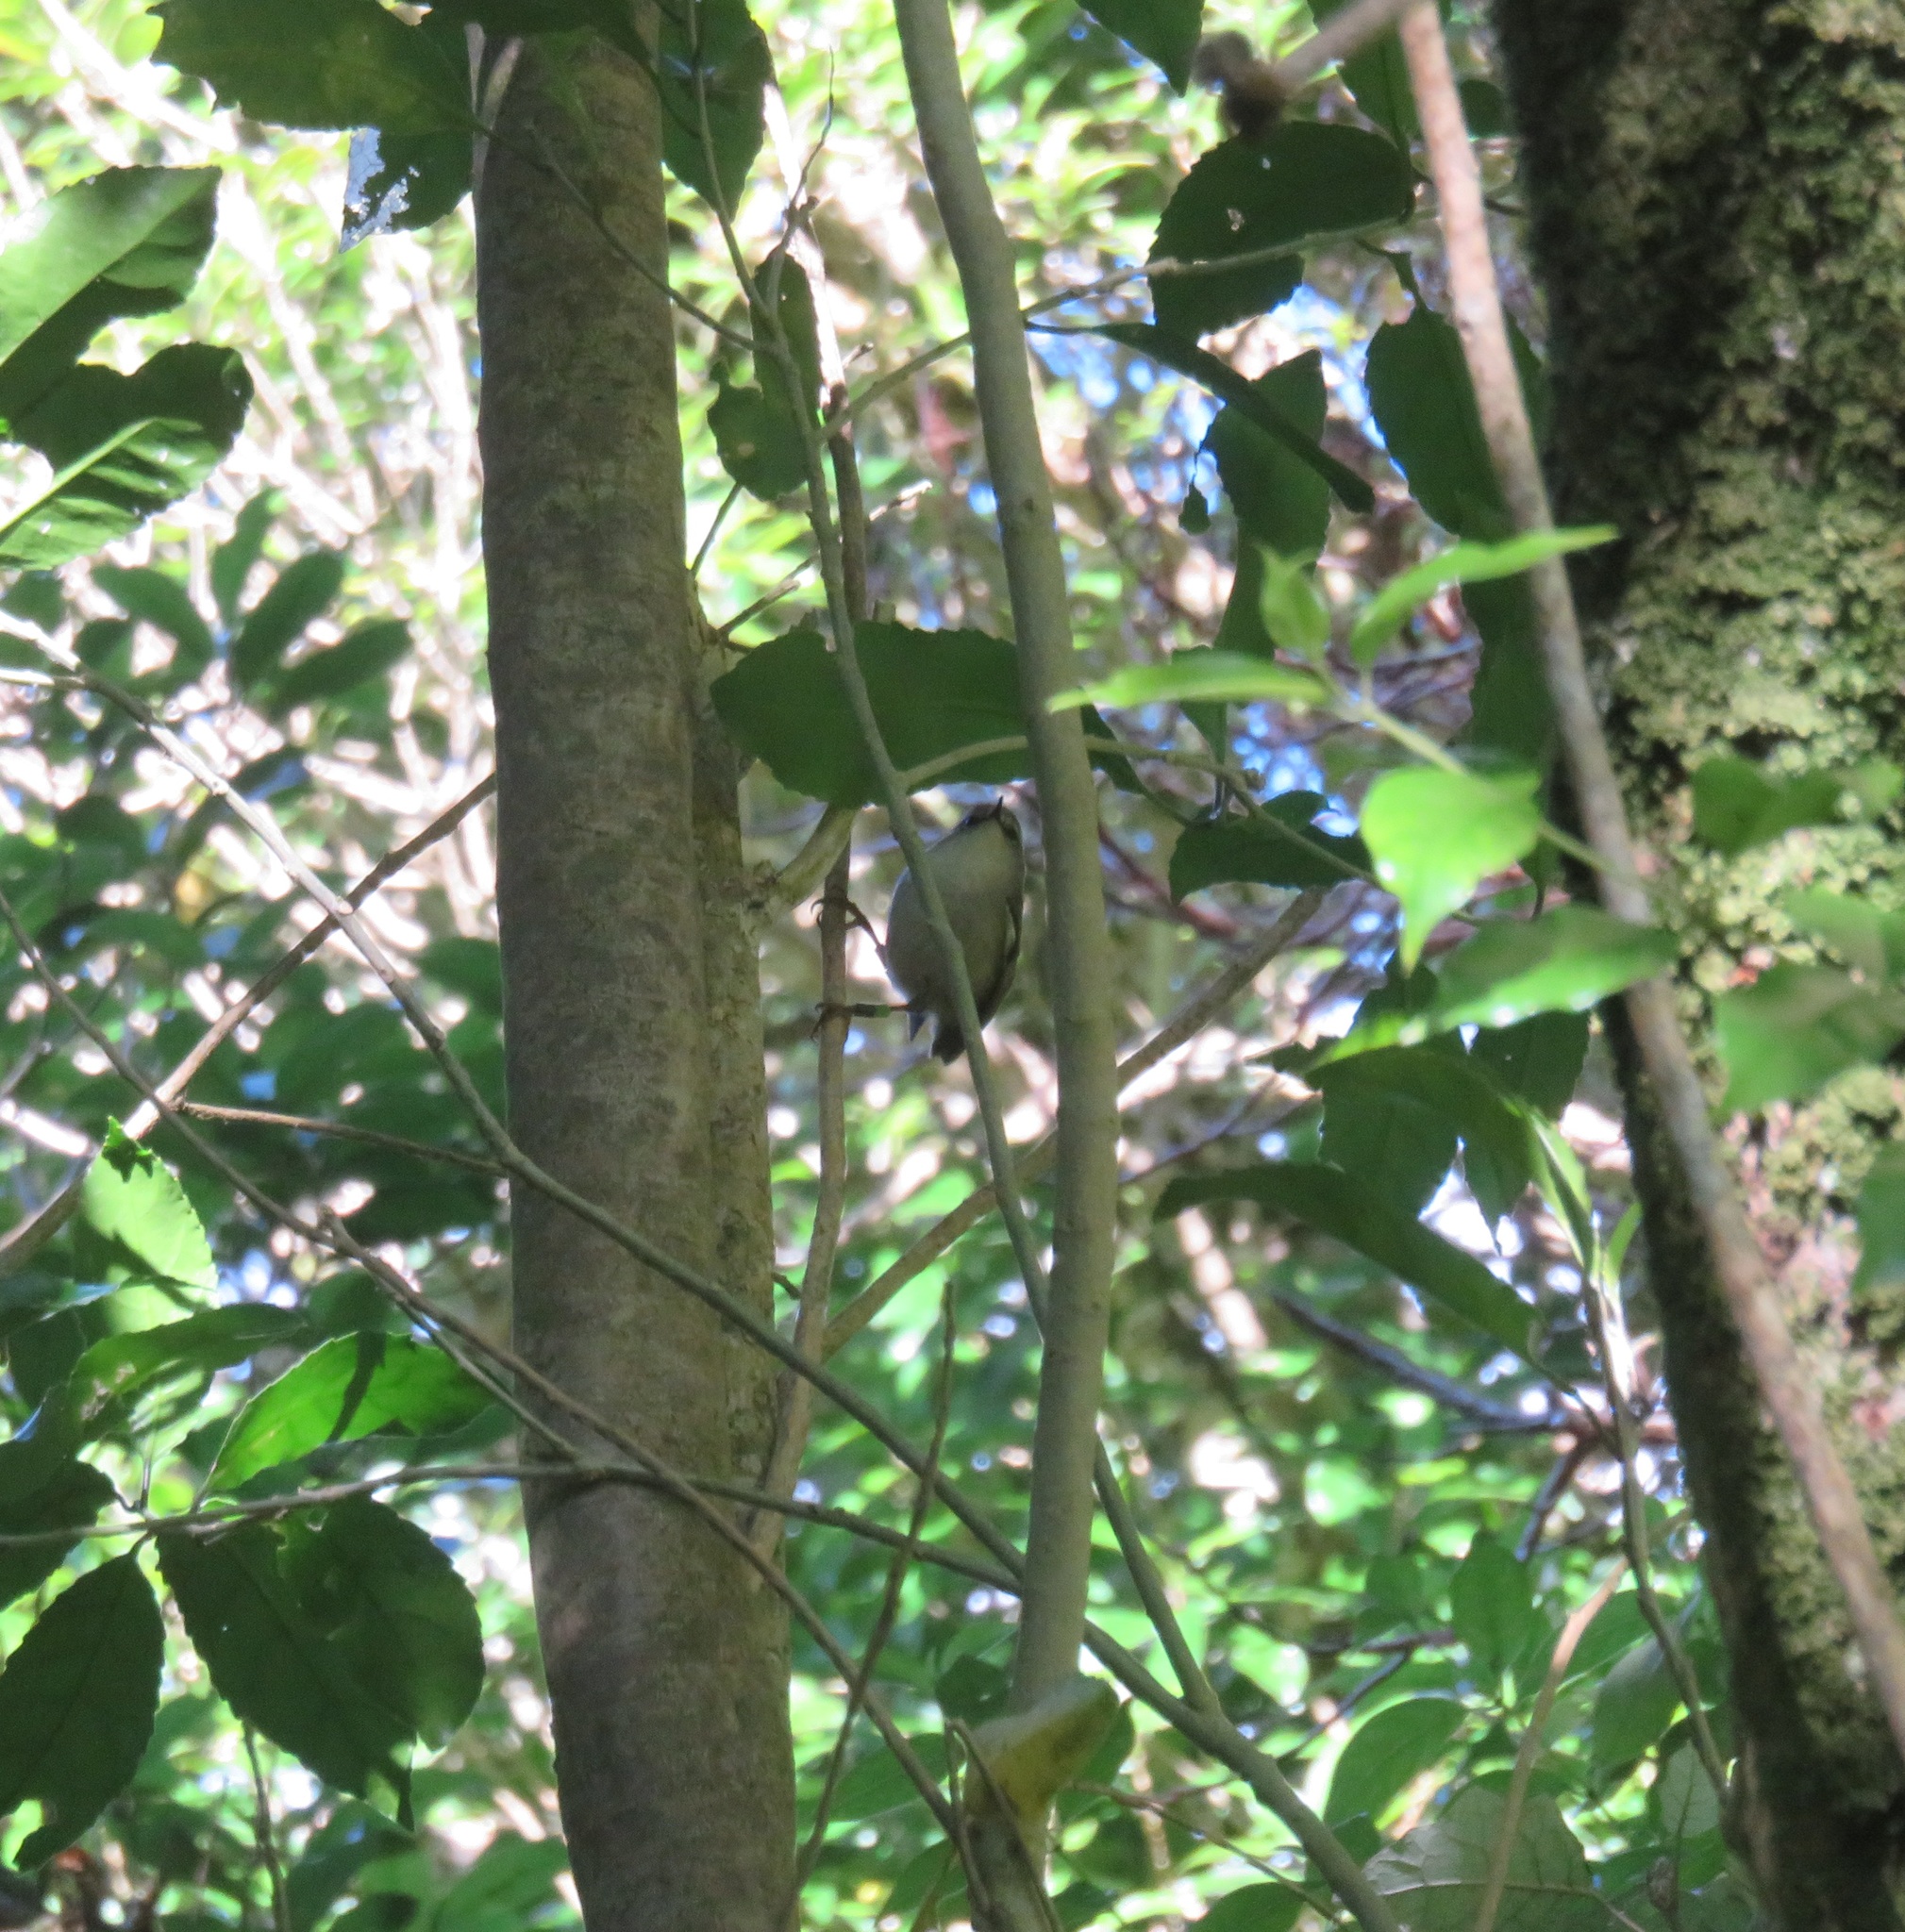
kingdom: Animalia
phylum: Chordata
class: Aves
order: Passeriformes
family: Acanthisittidae
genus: Acanthisitta
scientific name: Acanthisitta chloris
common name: Rifleman
